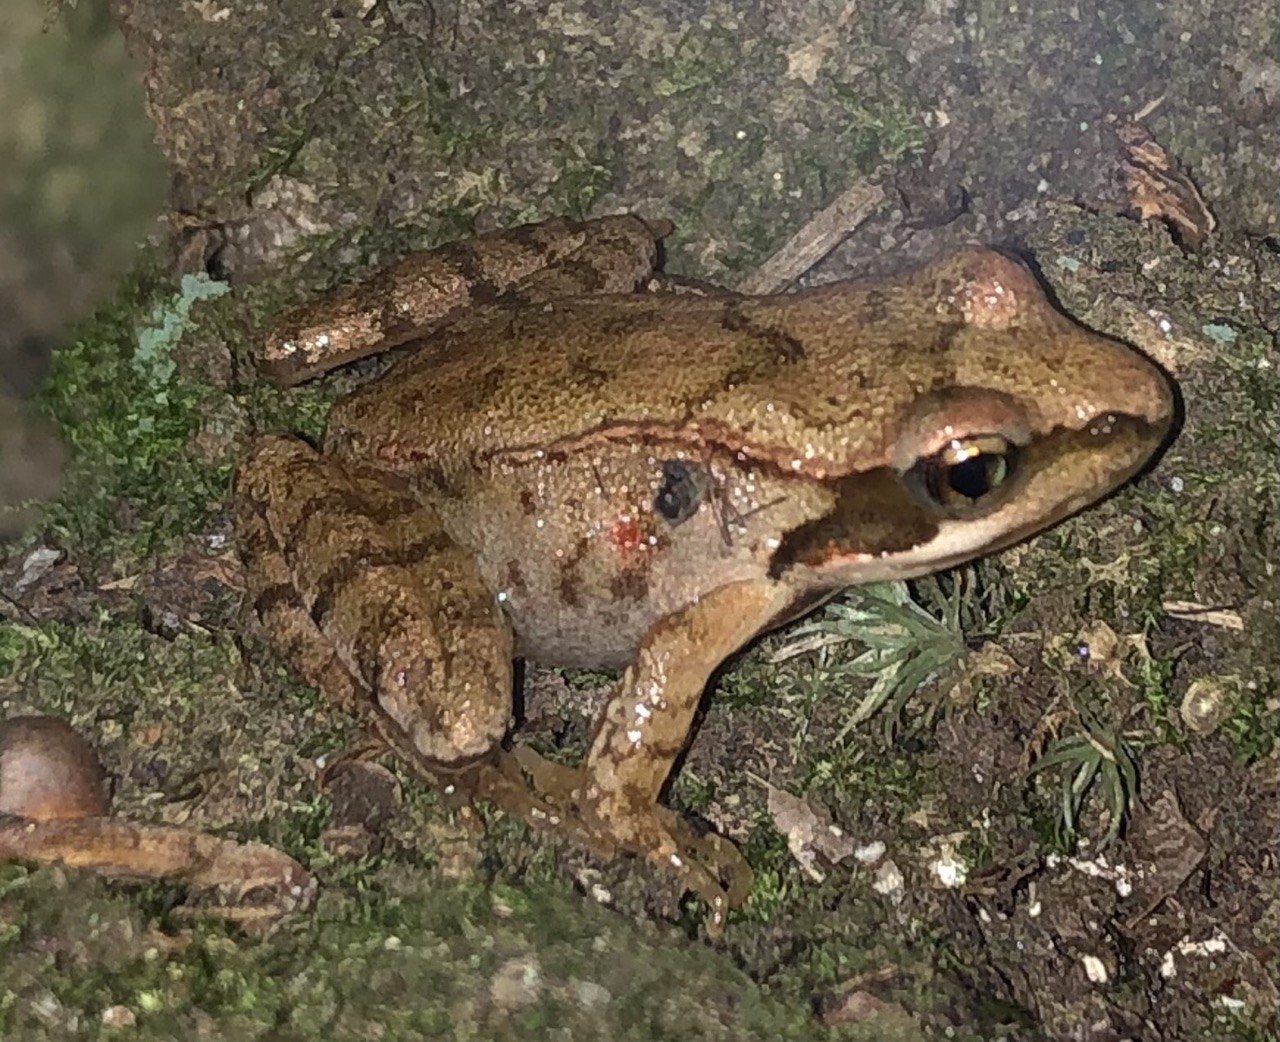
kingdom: Animalia
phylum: Chordata
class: Amphibia
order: Anura
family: Ranidae
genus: Rana
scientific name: Rana temporaria
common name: Common frog
